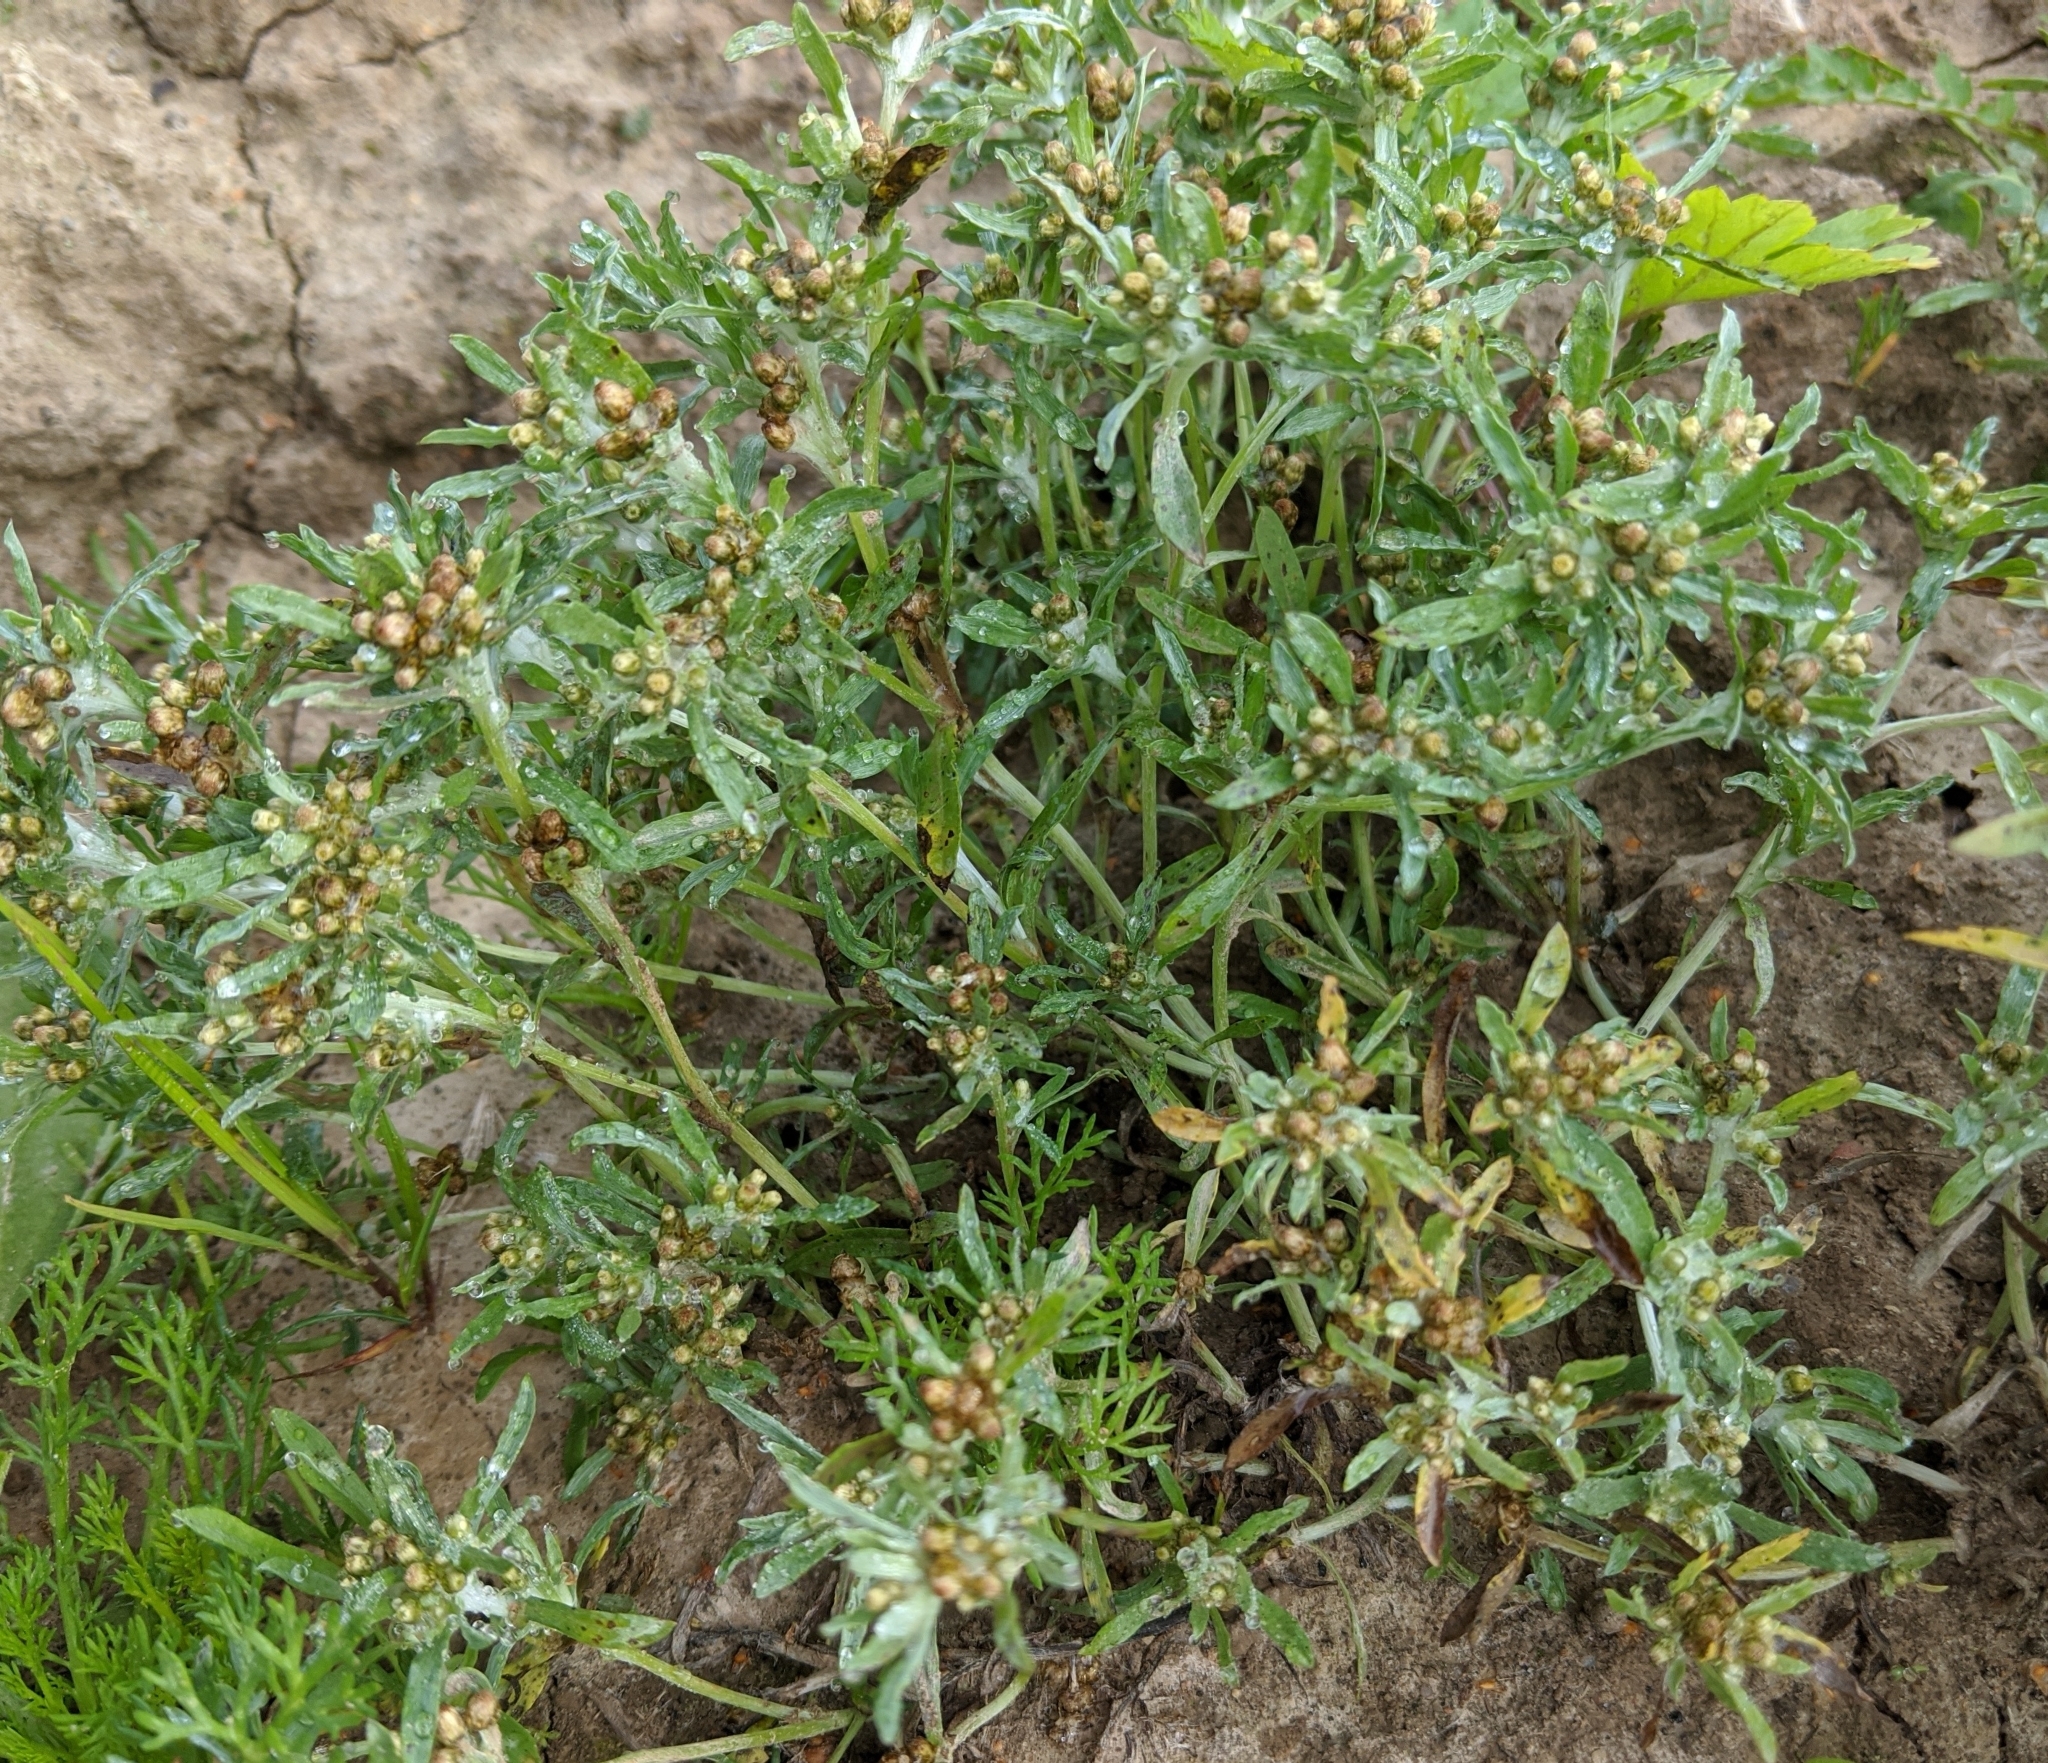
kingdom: Plantae
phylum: Tracheophyta
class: Magnoliopsida
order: Asterales
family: Asteraceae
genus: Gnaphalium
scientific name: Gnaphalium uliginosum
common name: Marsh cudweed
